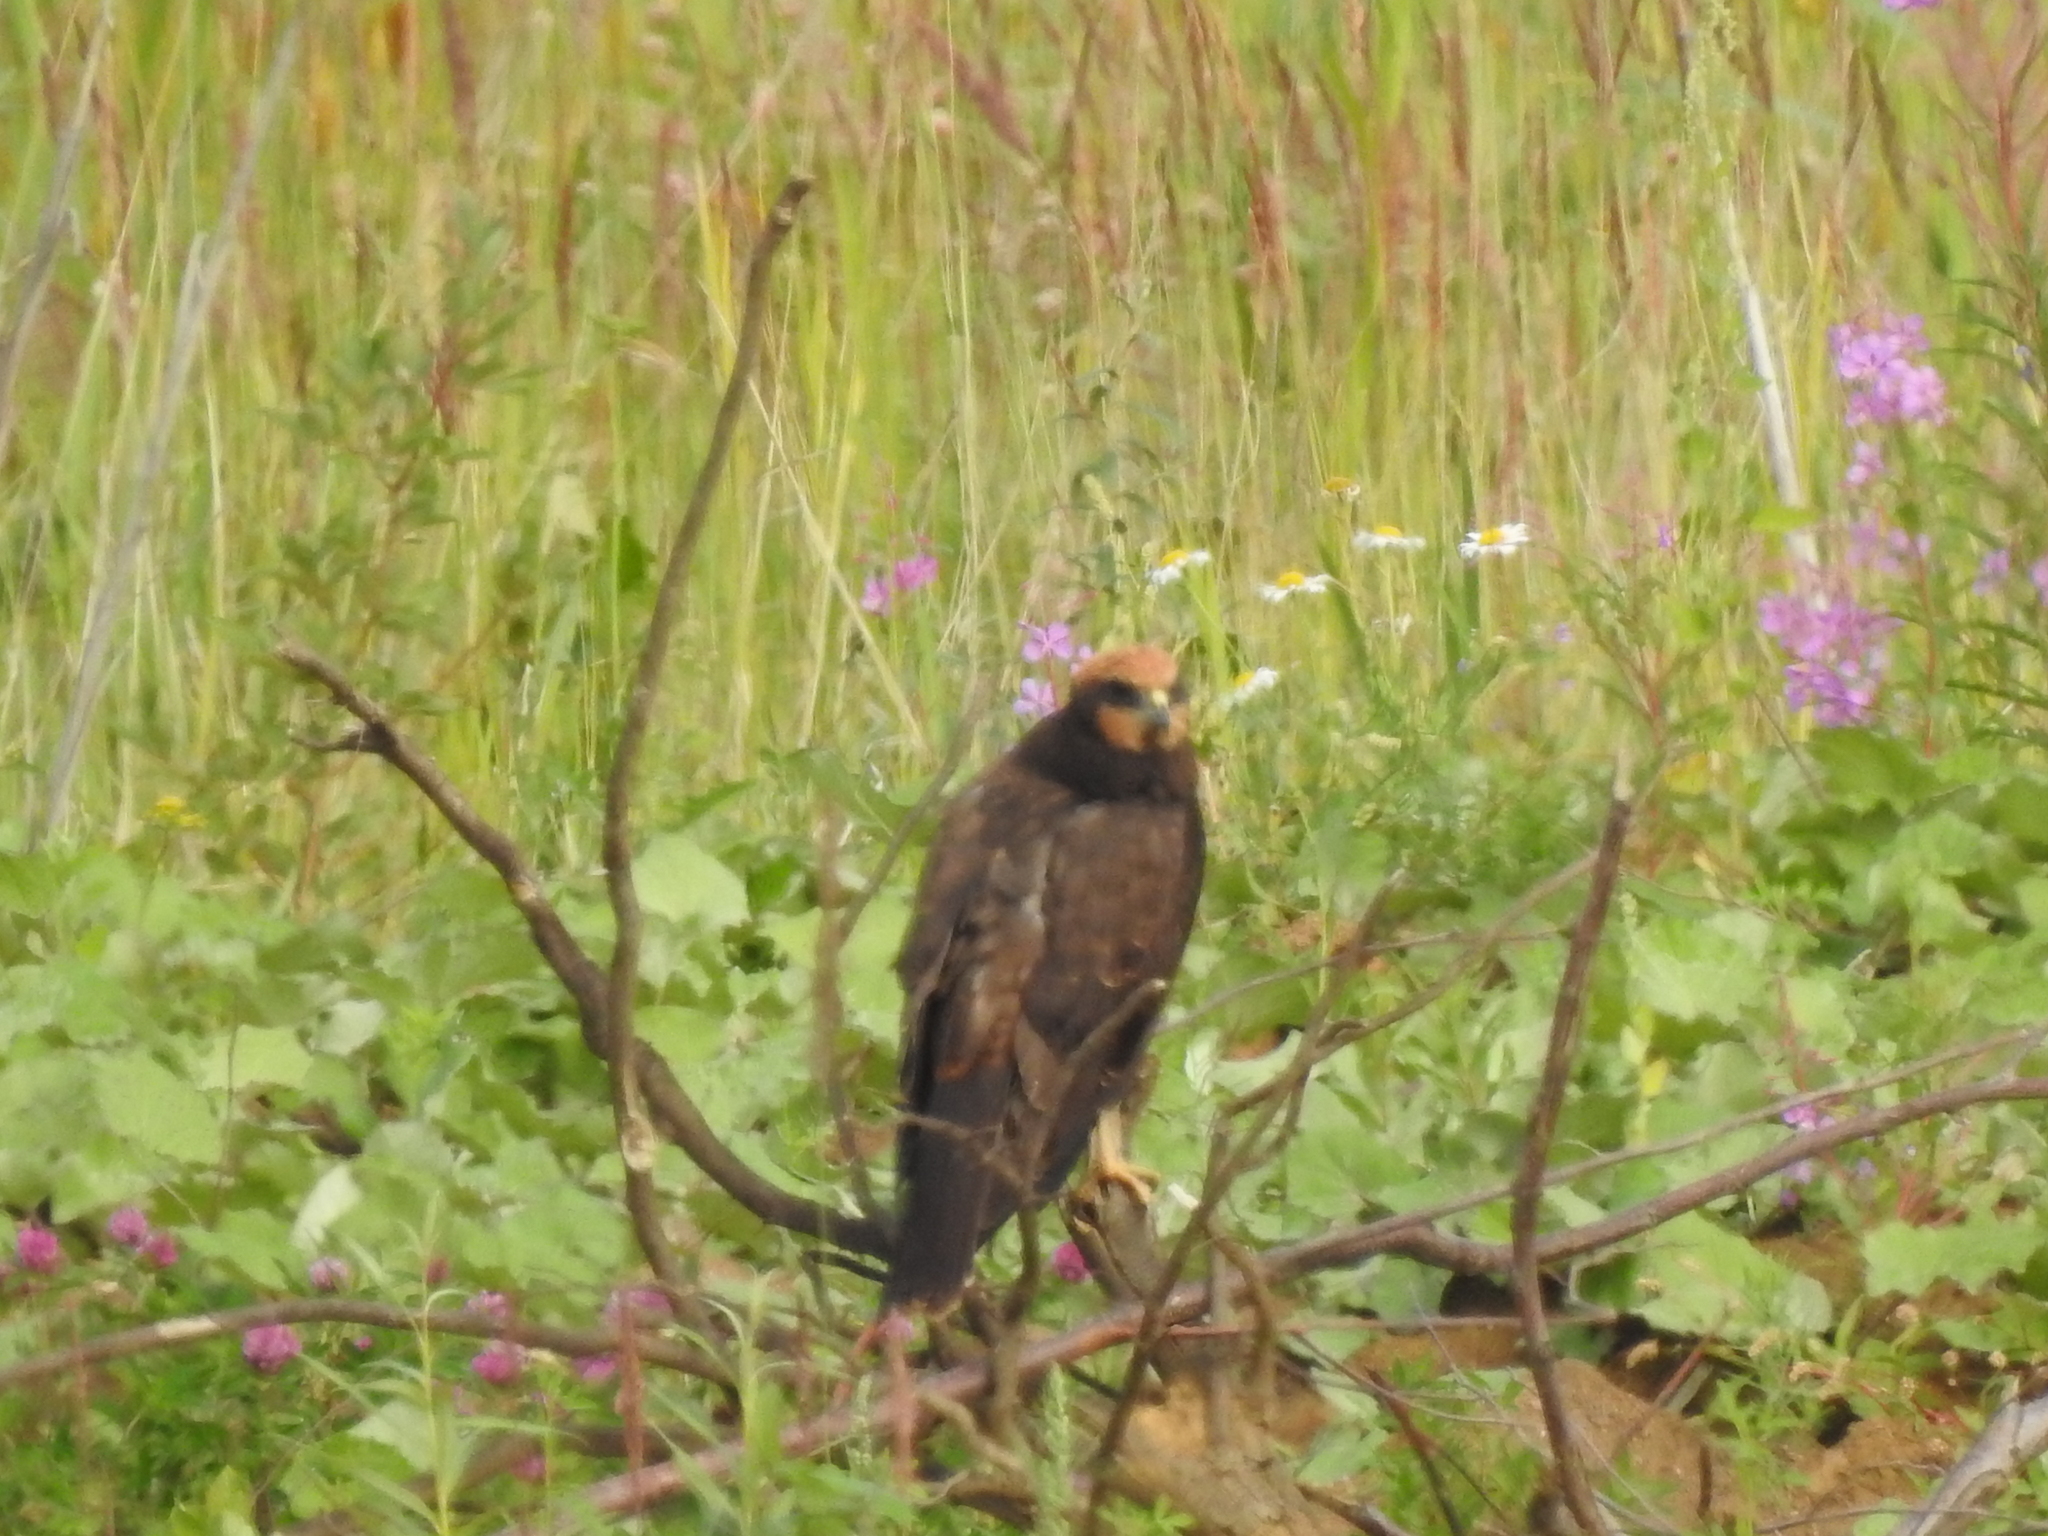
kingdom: Animalia
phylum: Chordata
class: Aves
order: Accipitriformes
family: Accipitridae
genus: Circus
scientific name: Circus aeruginosus
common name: Western marsh harrier
